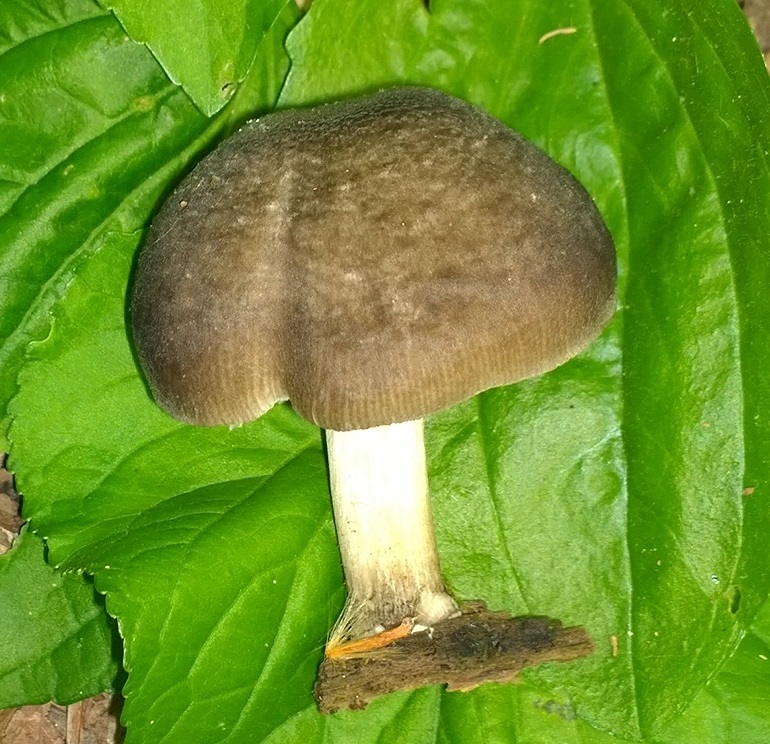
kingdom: Fungi
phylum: Basidiomycota
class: Agaricomycetes
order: Agaricales
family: Pluteaceae
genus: Pluteus
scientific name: Pluteus americanus
